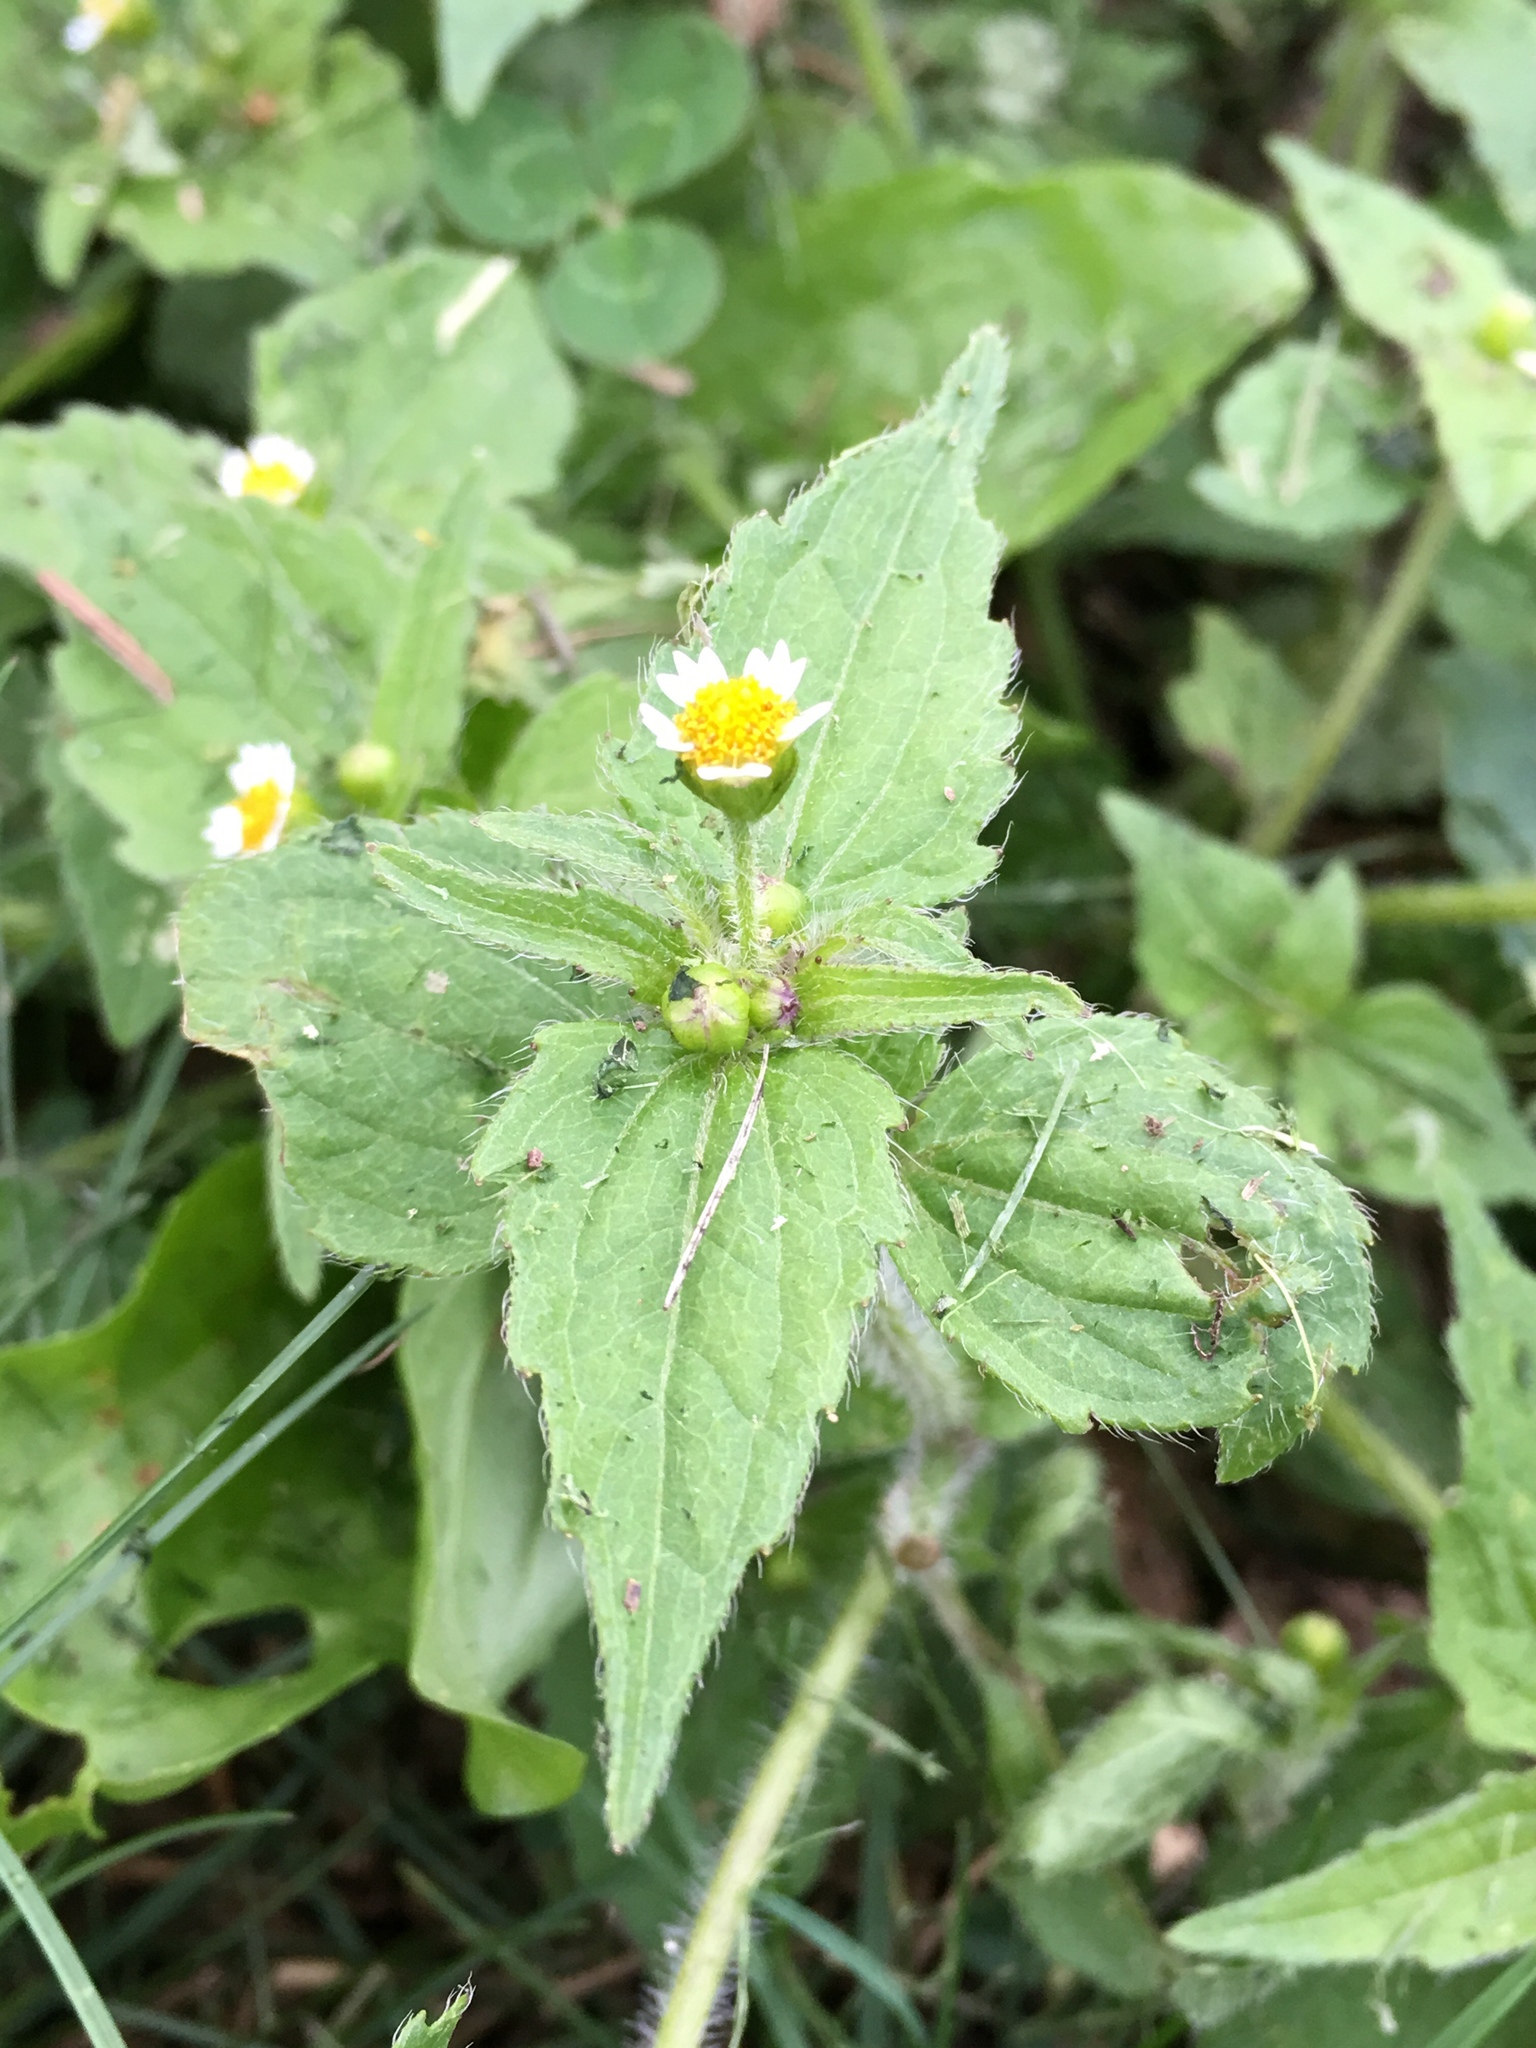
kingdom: Plantae
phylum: Tracheophyta
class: Magnoliopsida
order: Asterales
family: Asteraceae
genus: Galinsoga
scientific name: Galinsoga quadriradiata
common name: Shaggy soldier
